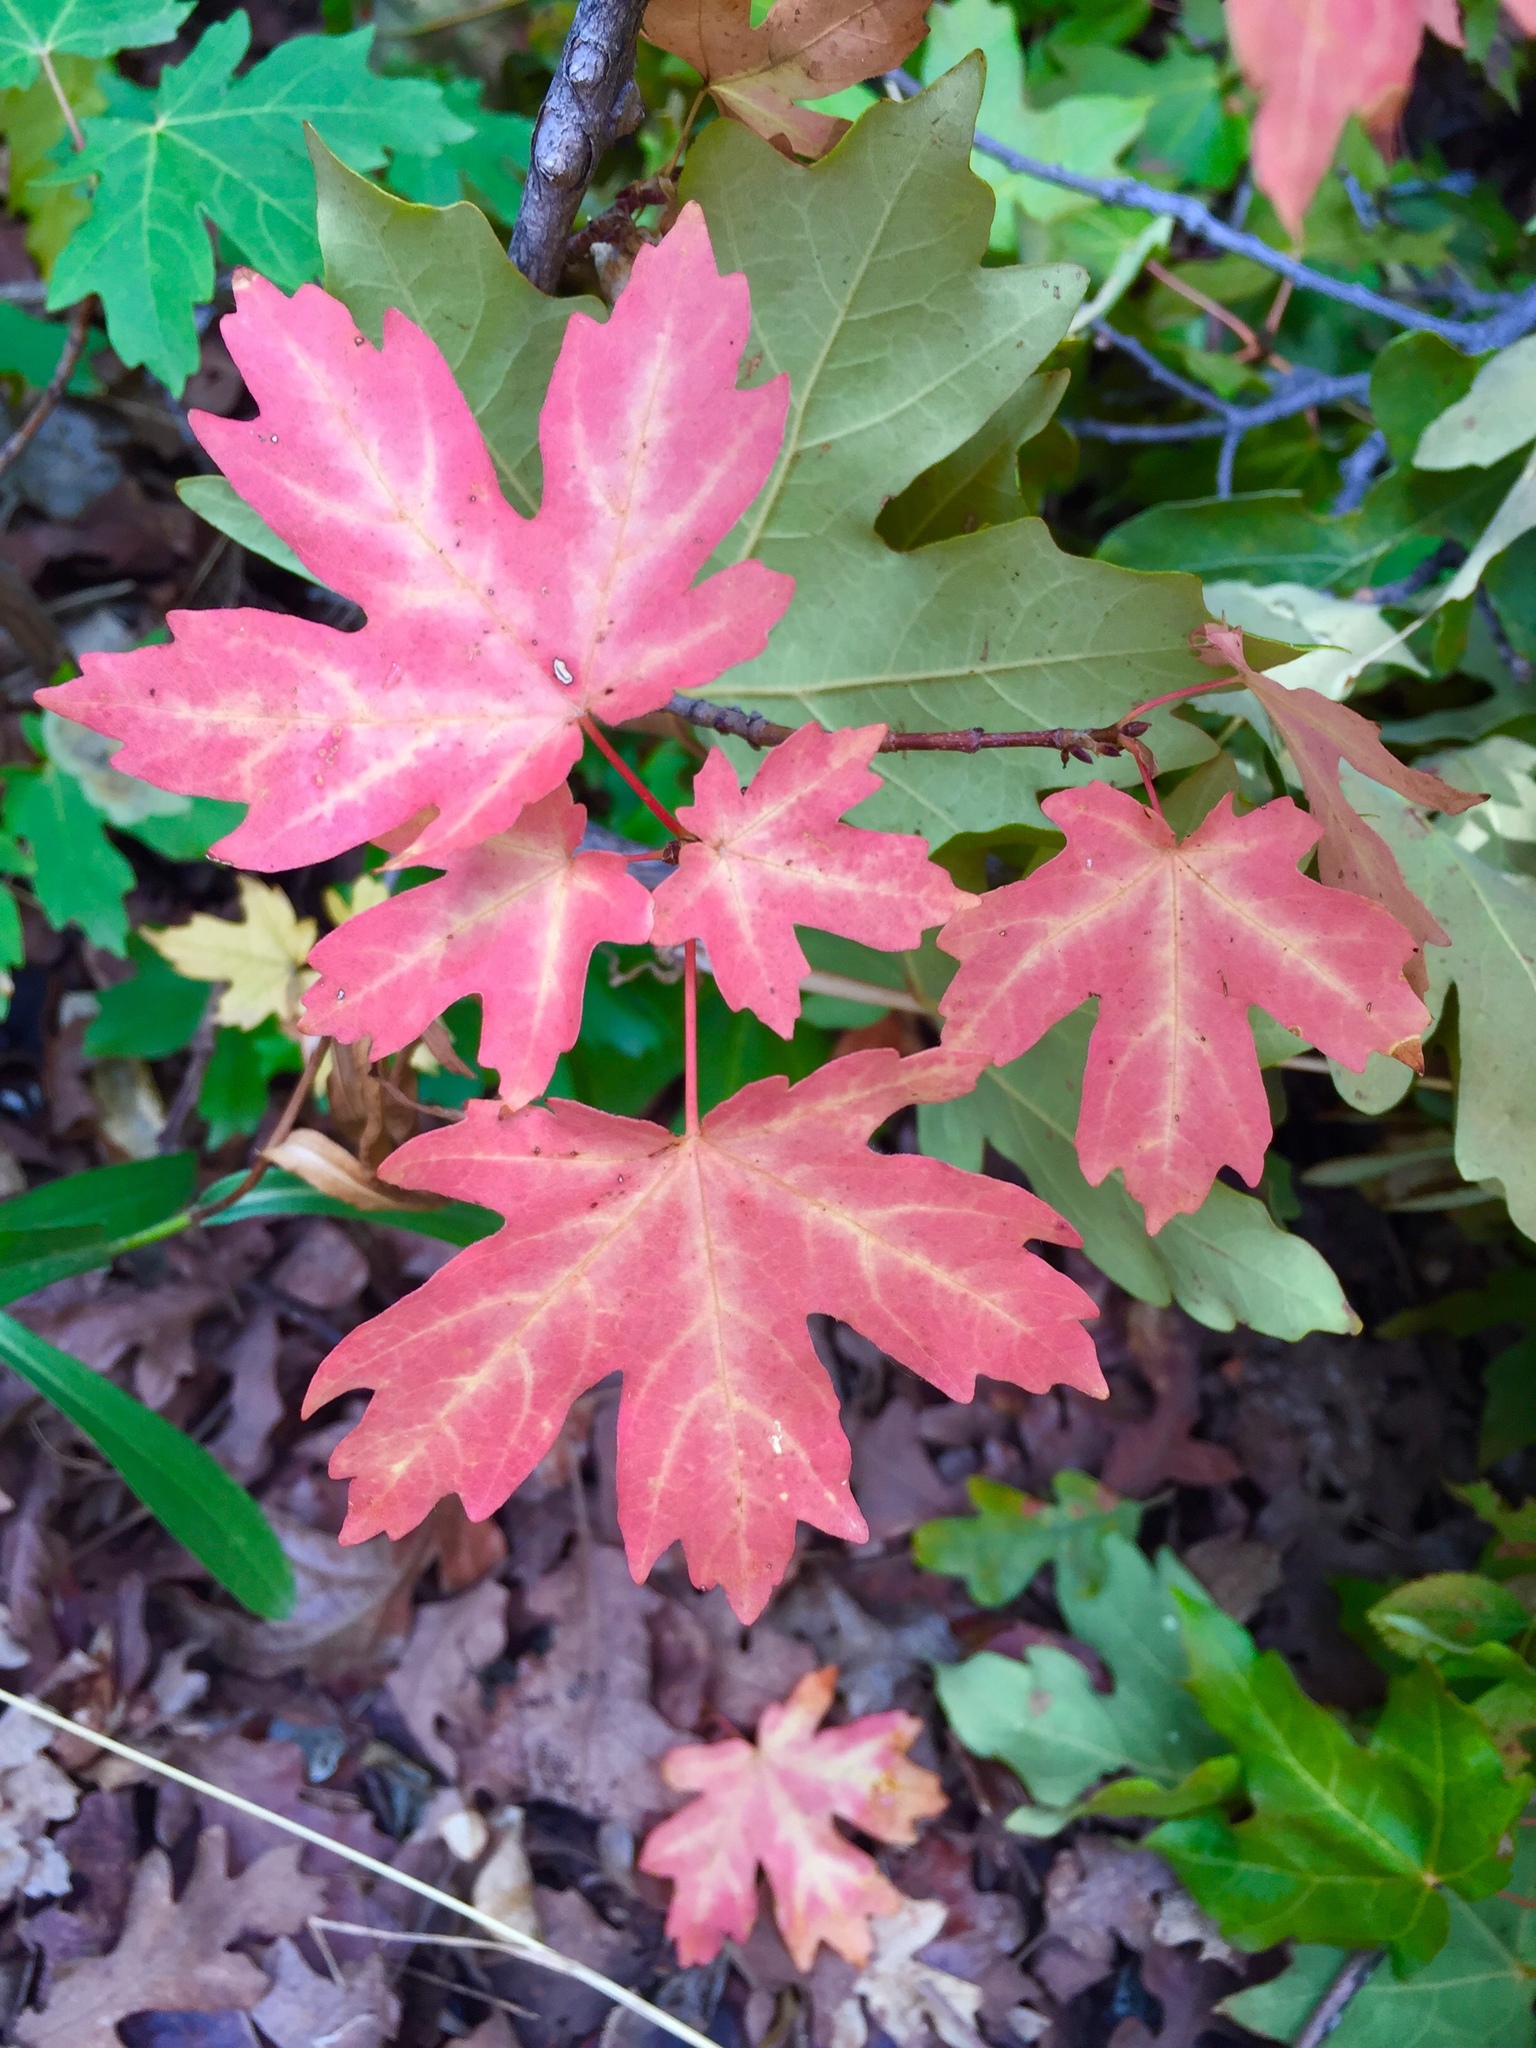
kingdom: Plantae
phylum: Tracheophyta
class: Magnoliopsida
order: Sapindales
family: Sapindaceae
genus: Acer
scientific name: Acer grandidentatum
